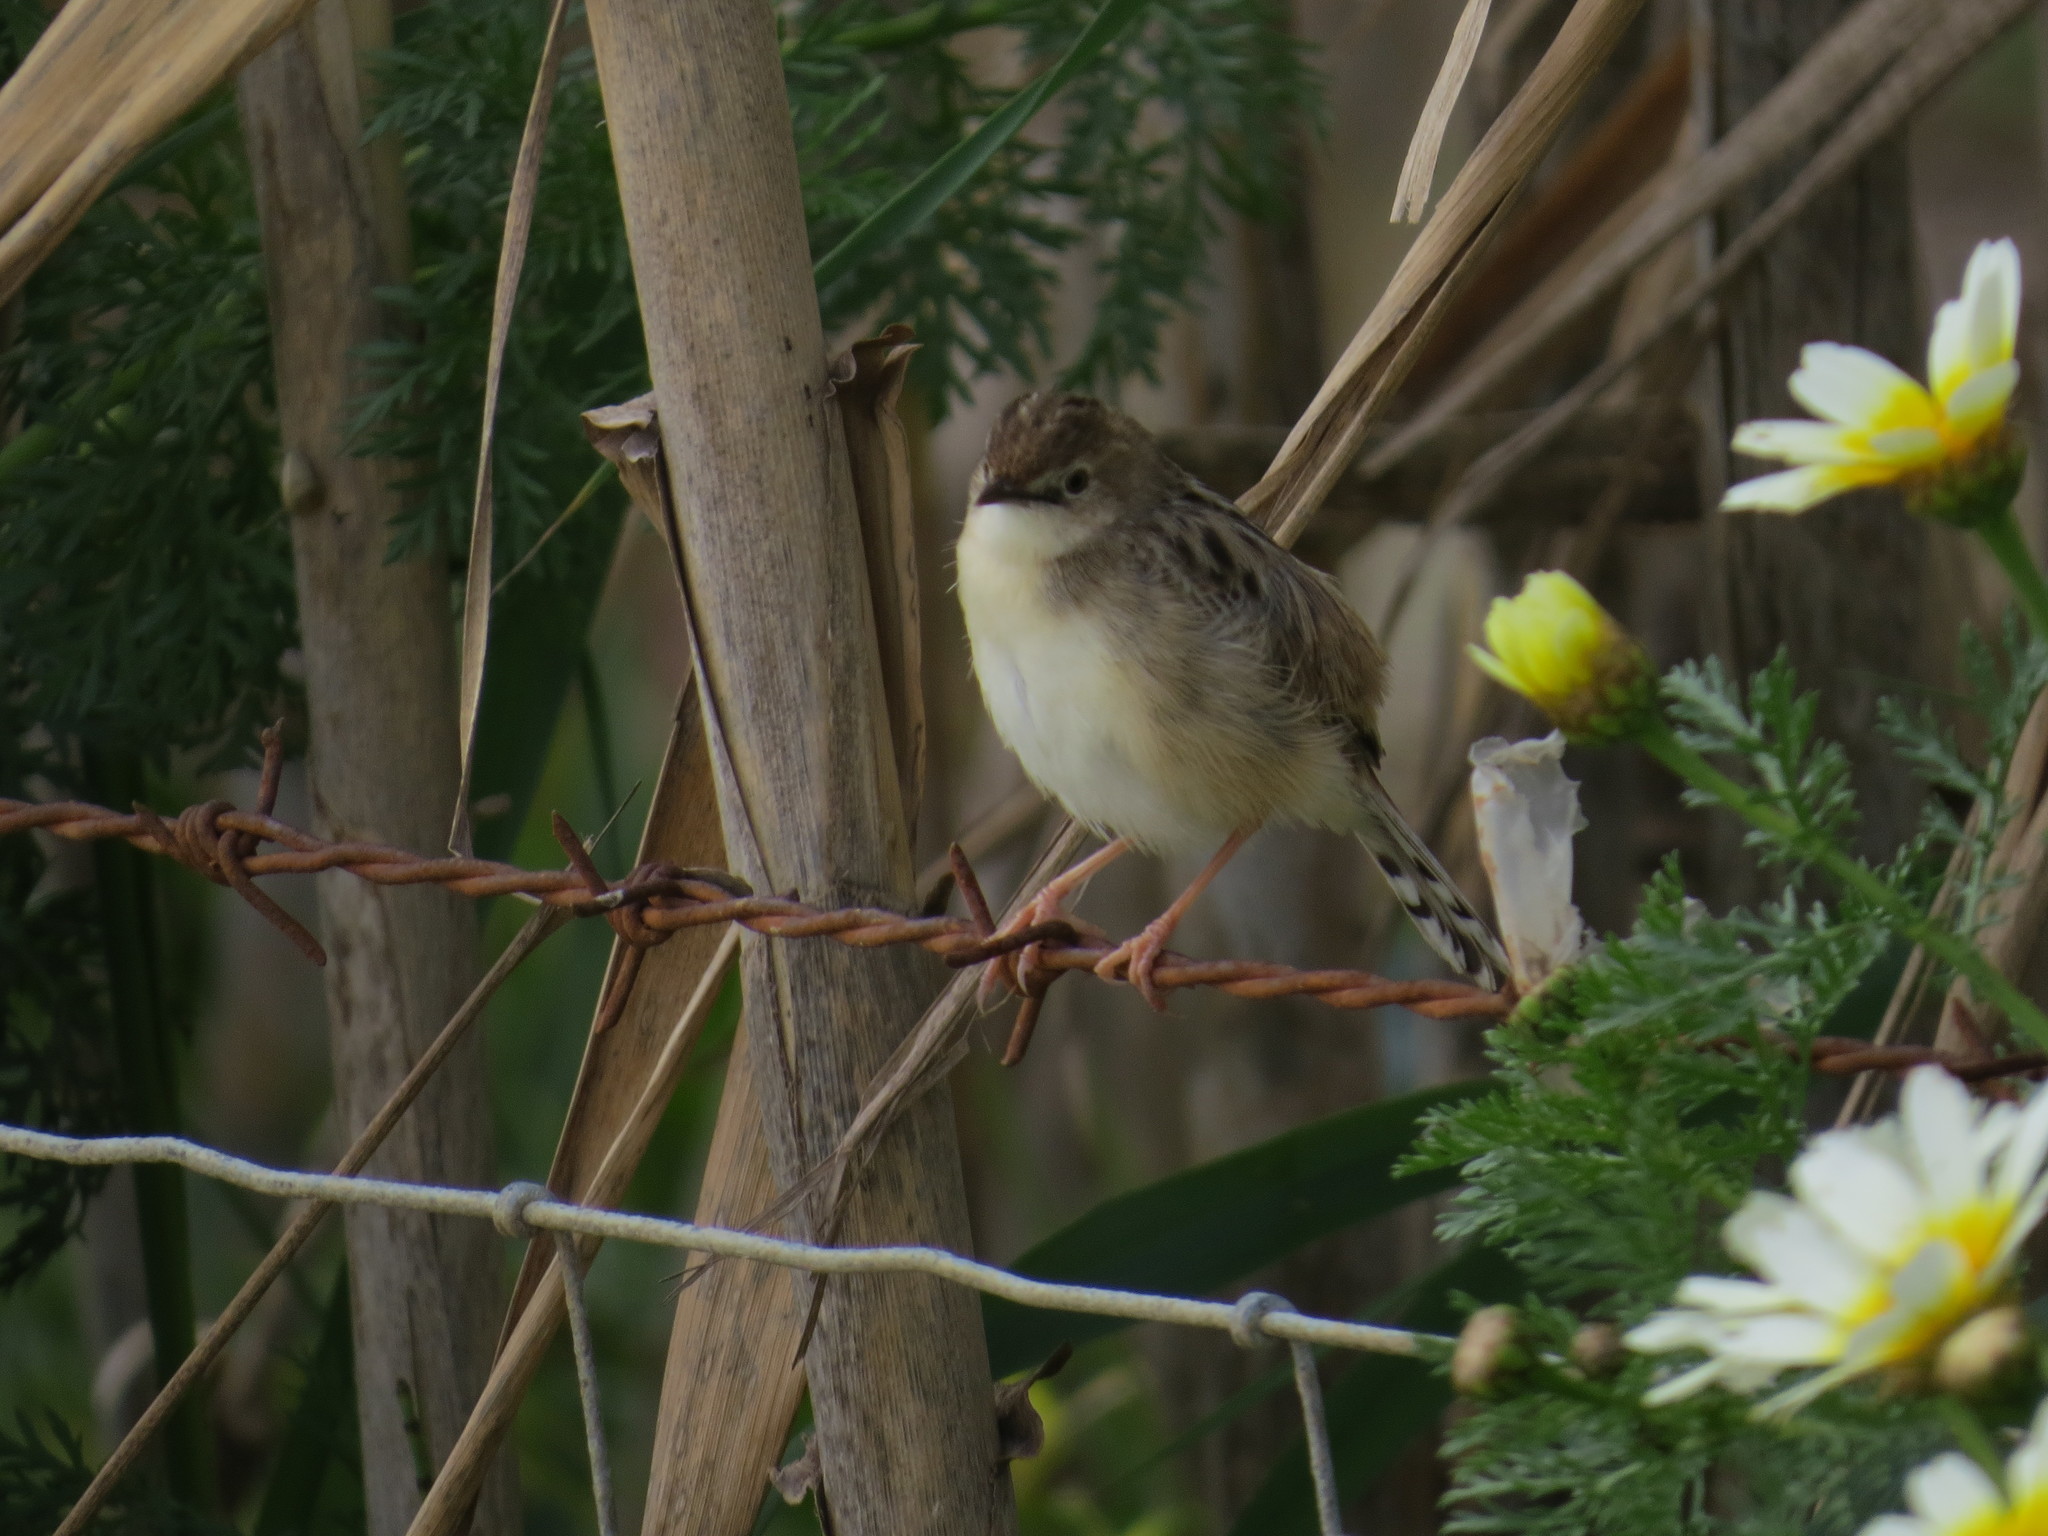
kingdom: Animalia
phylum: Chordata
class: Aves
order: Passeriformes
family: Cisticolidae
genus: Cisticola
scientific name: Cisticola juncidis
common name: Zitting cisticola
